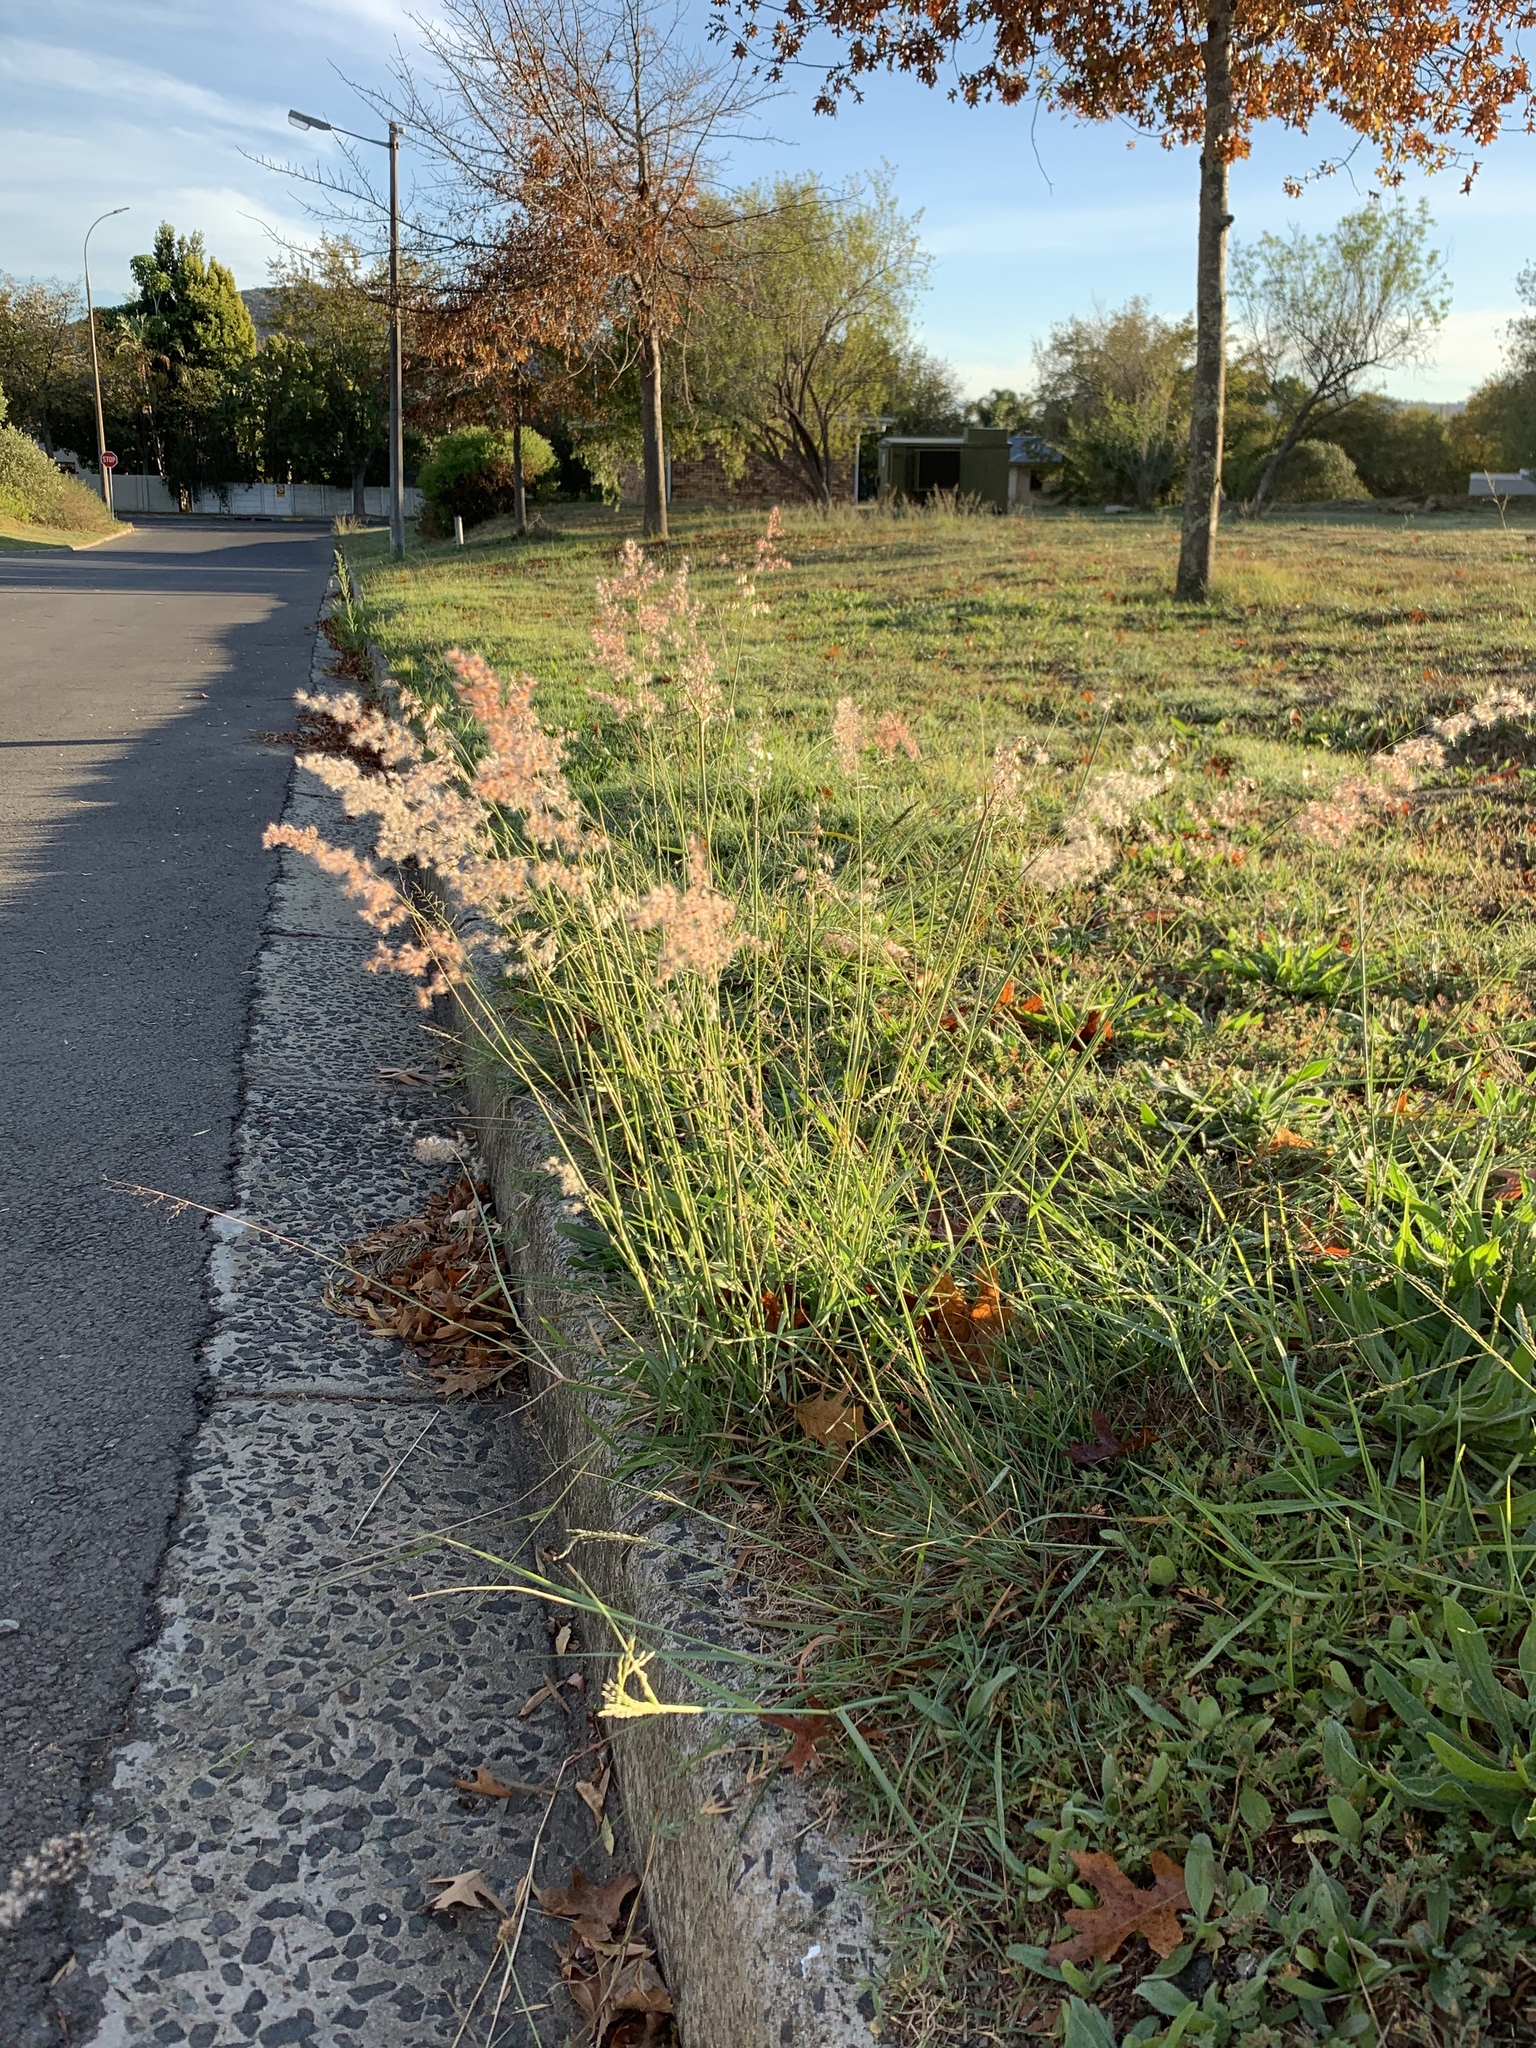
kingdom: Plantae
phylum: Tracheophyta
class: Liliopsida
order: Poales
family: Poaceae
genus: Melinis
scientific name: Melinis repens
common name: Rose natal grass
